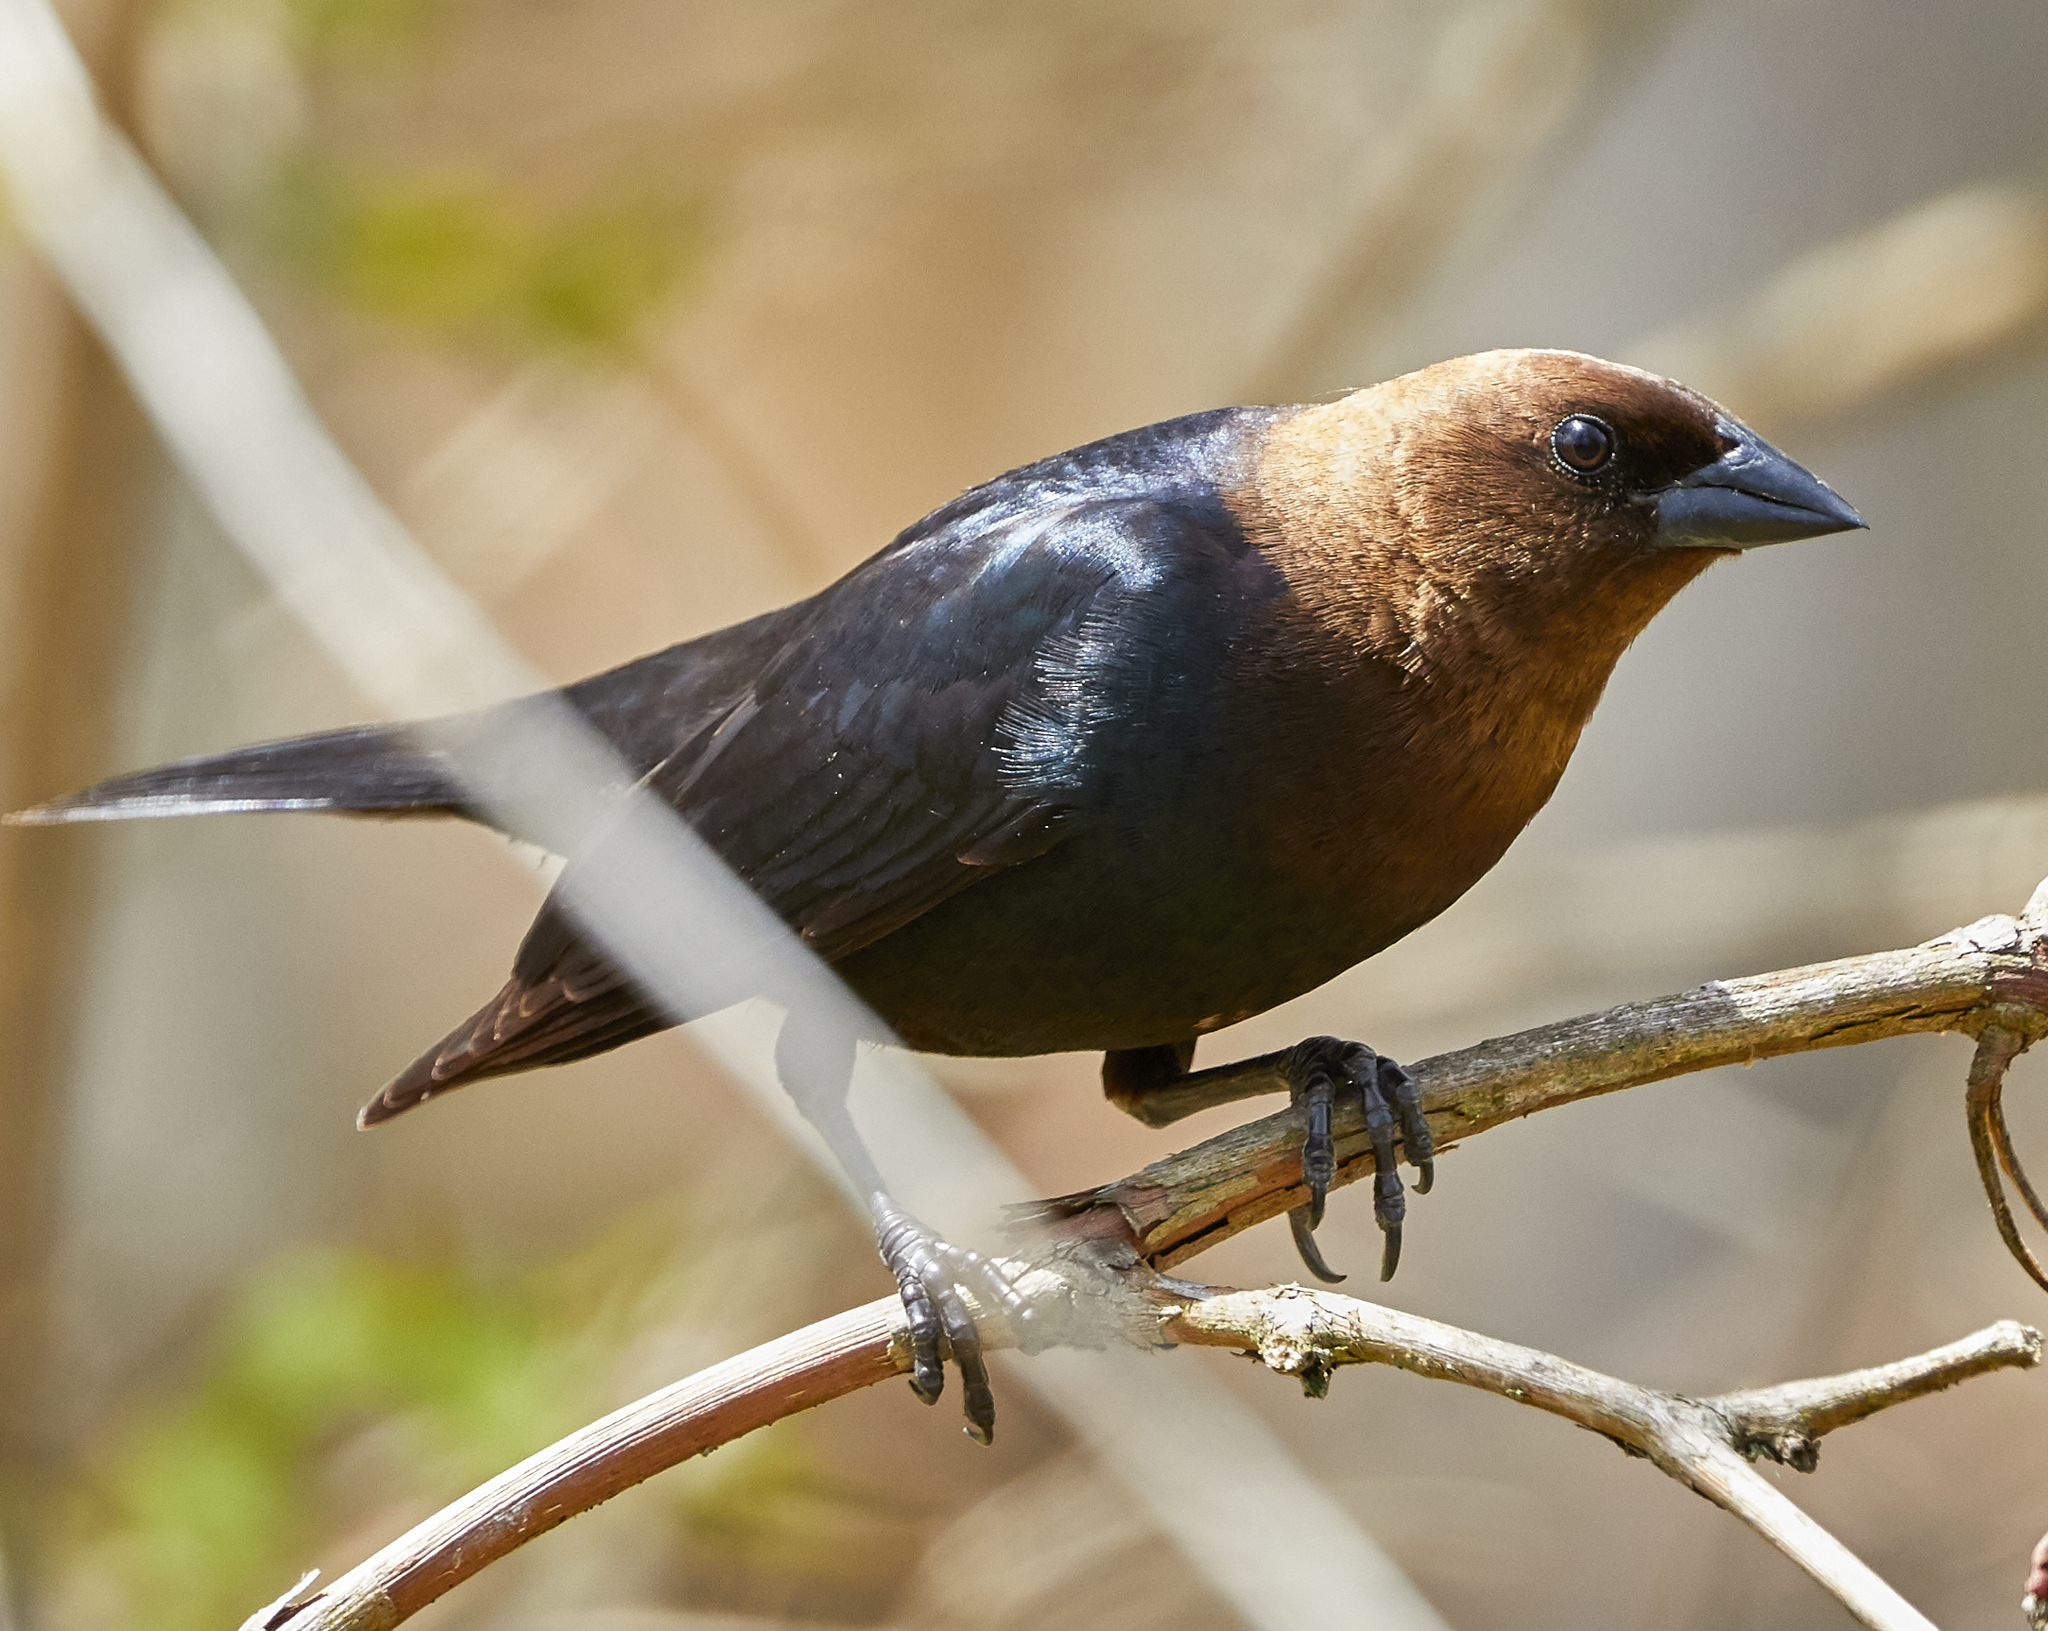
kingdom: Animalia
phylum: Chordata
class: Aves
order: Passeriformes
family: Icteridae
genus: Molothrus
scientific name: Molothrus ater
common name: Brown-headed cowbird
